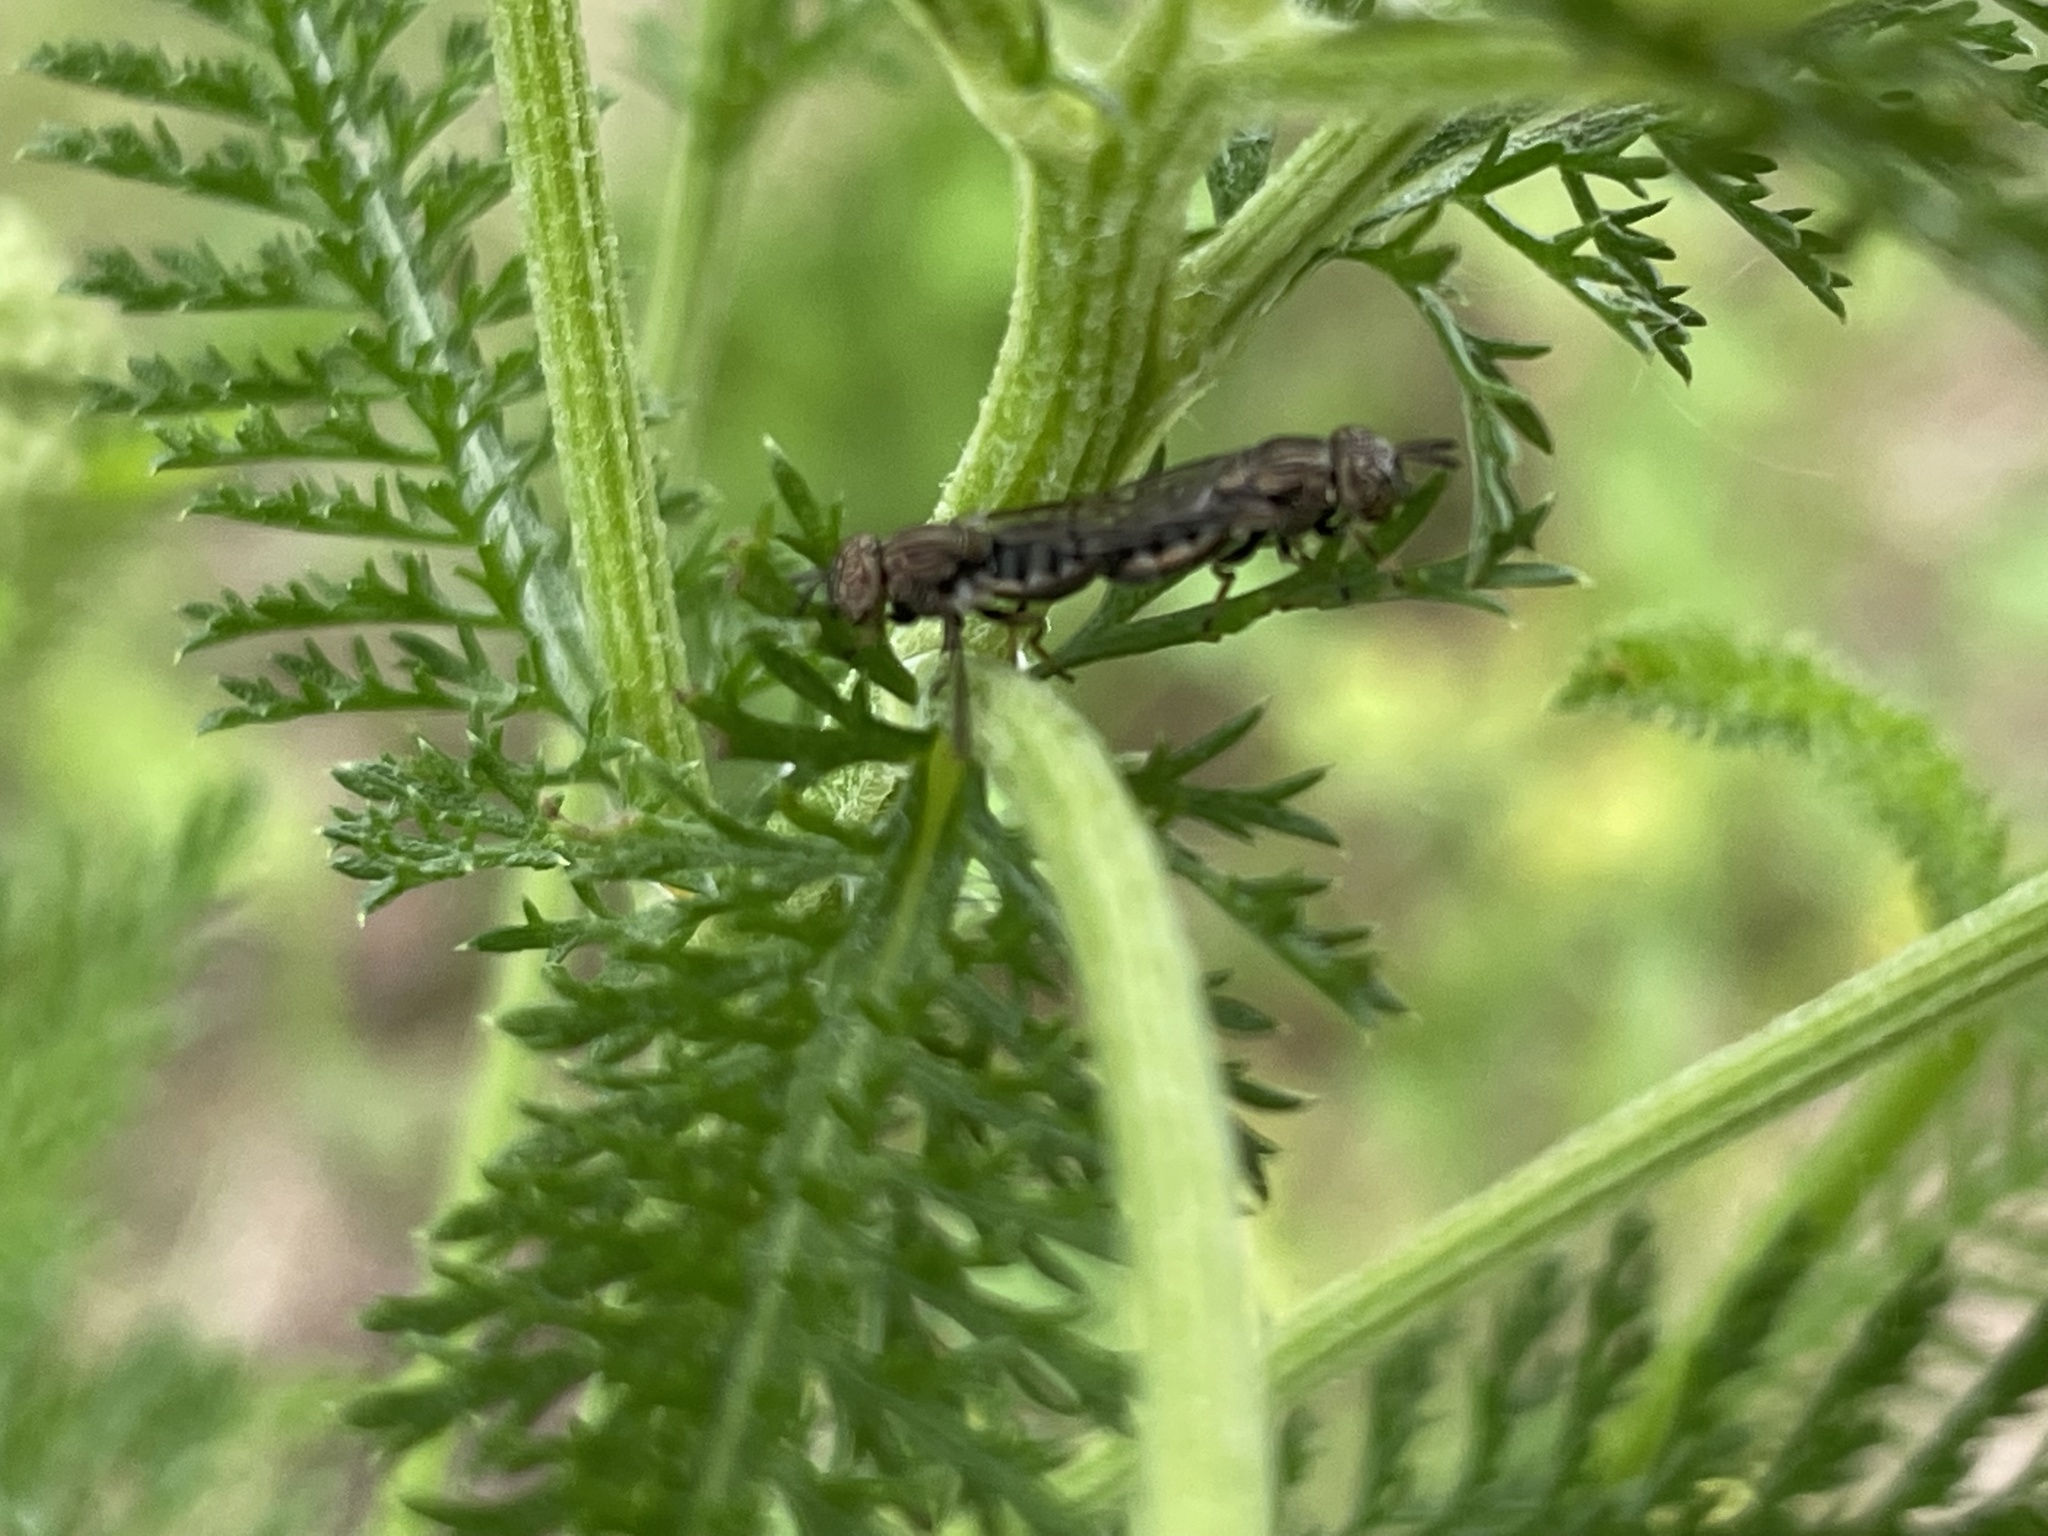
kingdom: Animalia
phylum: Arthropoda
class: Insecta
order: Diptera
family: Syrphidae
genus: Orthonevra
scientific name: Orthonevra nitida
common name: Wavy mucksucker
